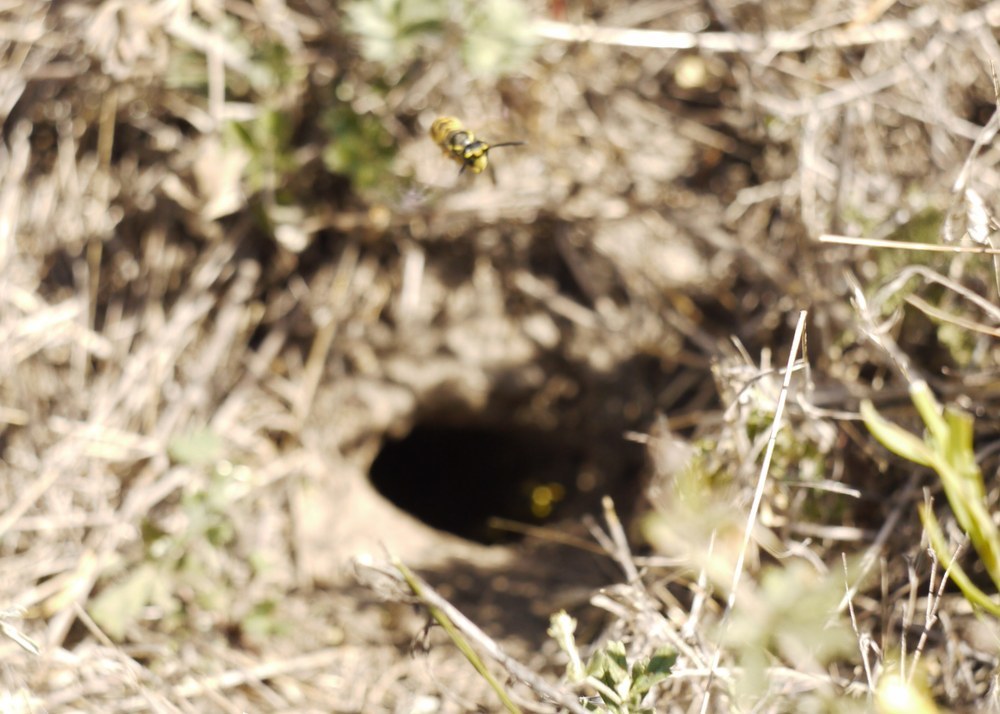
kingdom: Animalia
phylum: Arthropoda
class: Insecta
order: Hymenoptera
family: Vespidae
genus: Vespula
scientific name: Vespula germanica
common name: German wasp
